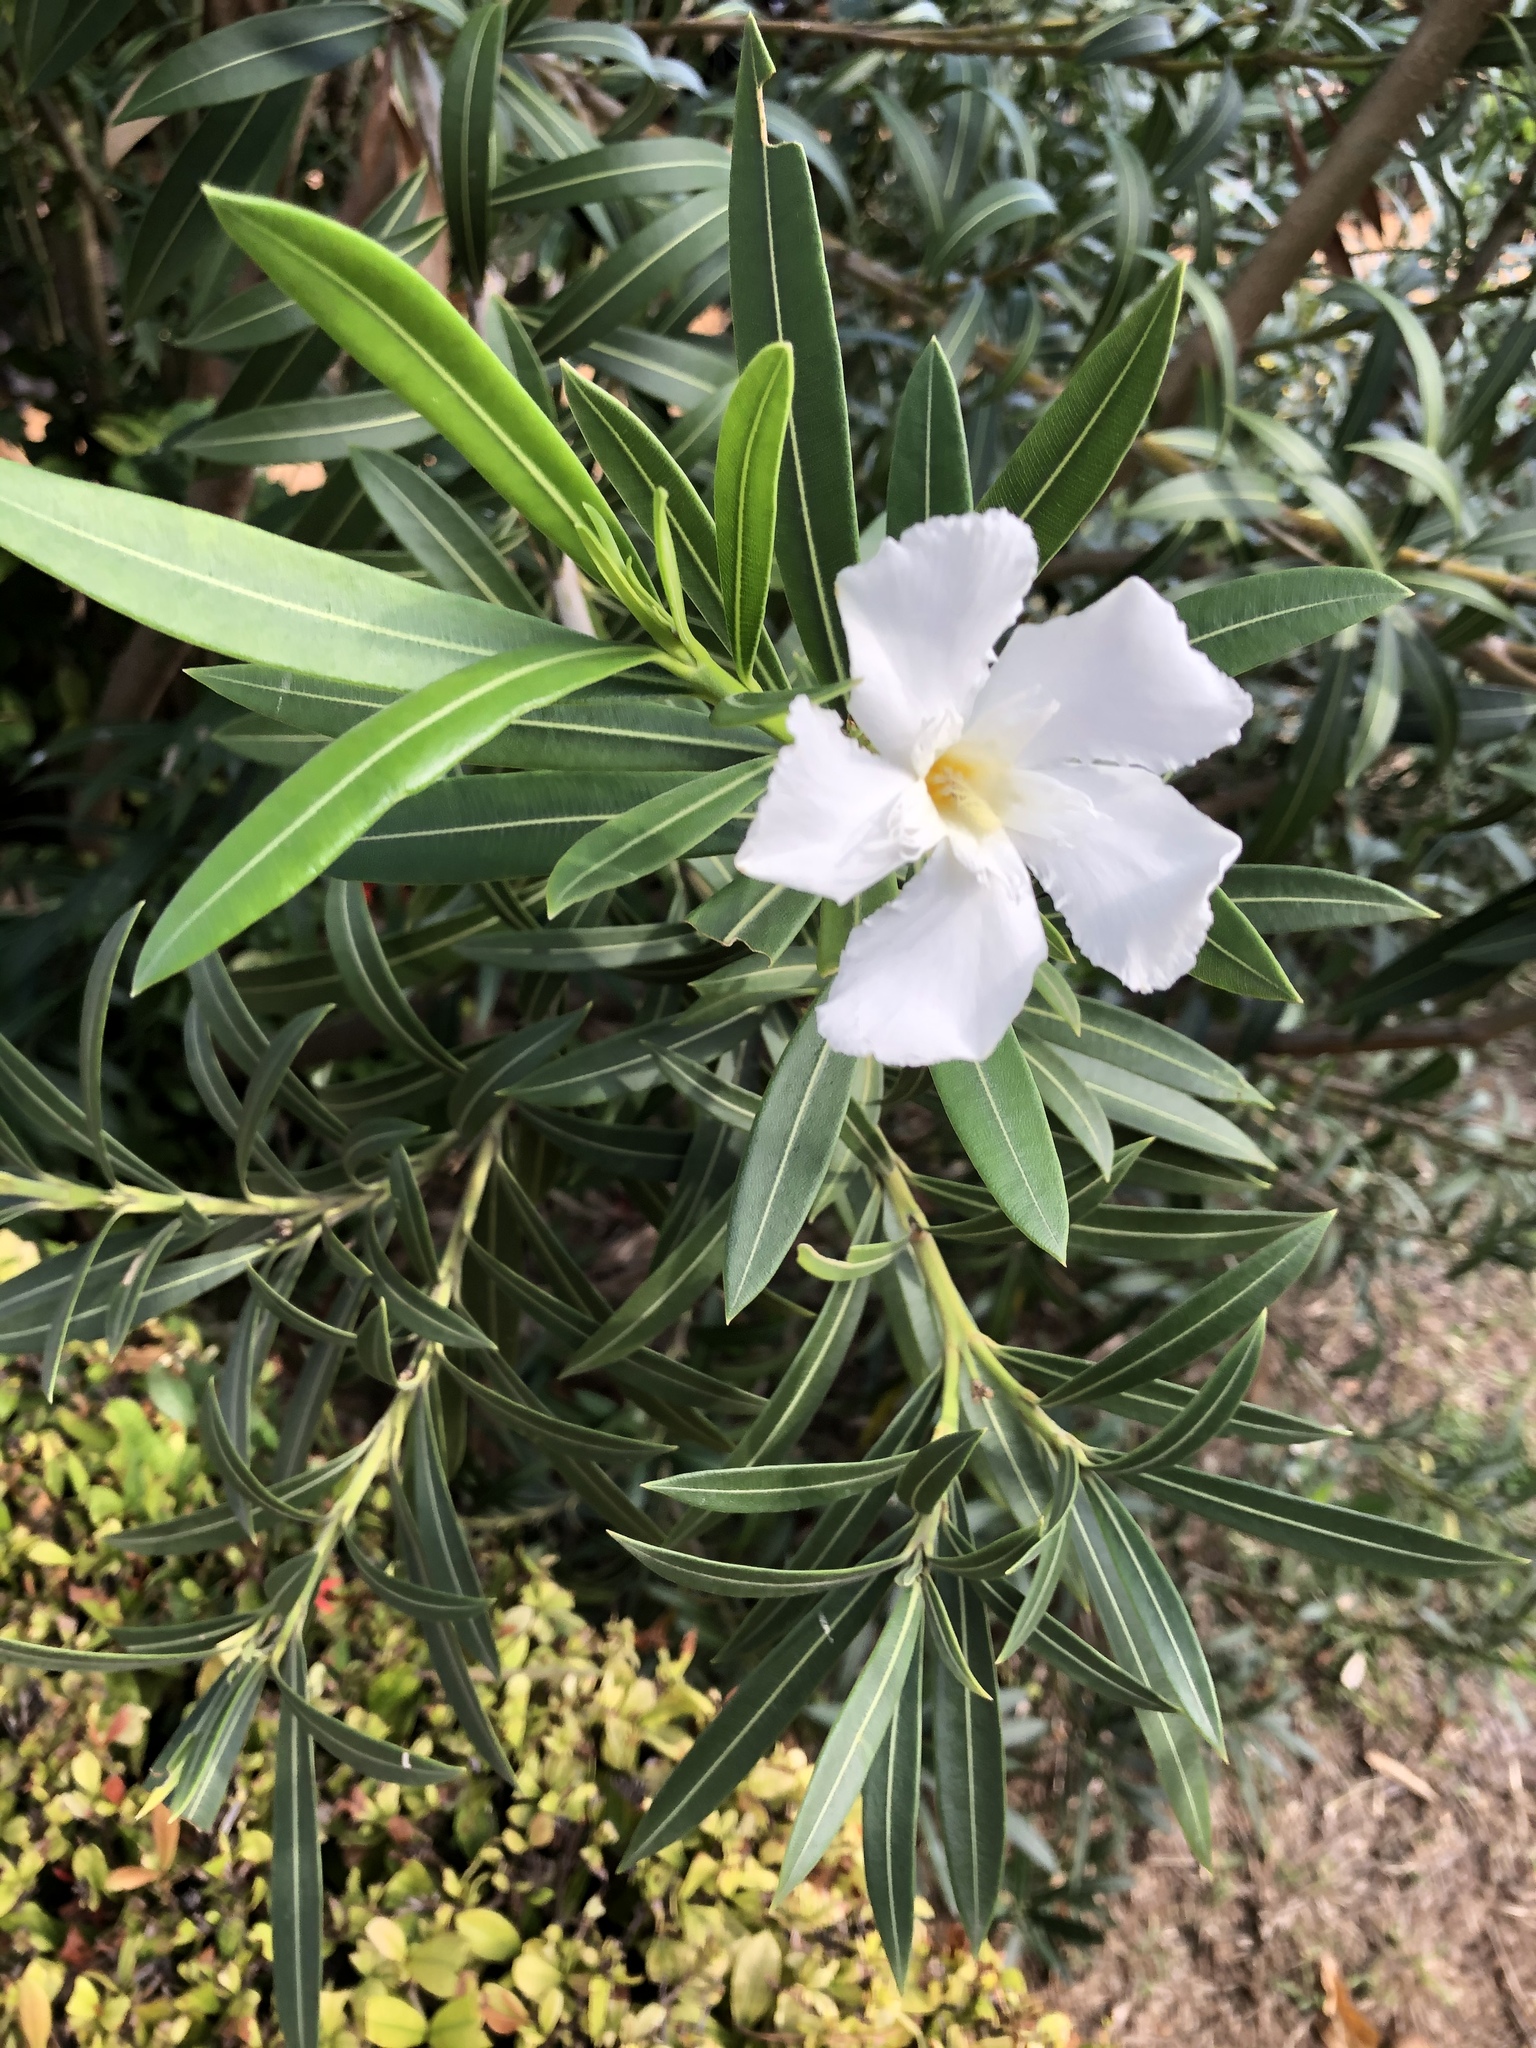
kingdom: Plantae
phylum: Tracheophyta
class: Magnoliopsida
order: Gentianales
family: Apocynaceae
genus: Nerium
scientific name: Nerium oleander
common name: Oleander
